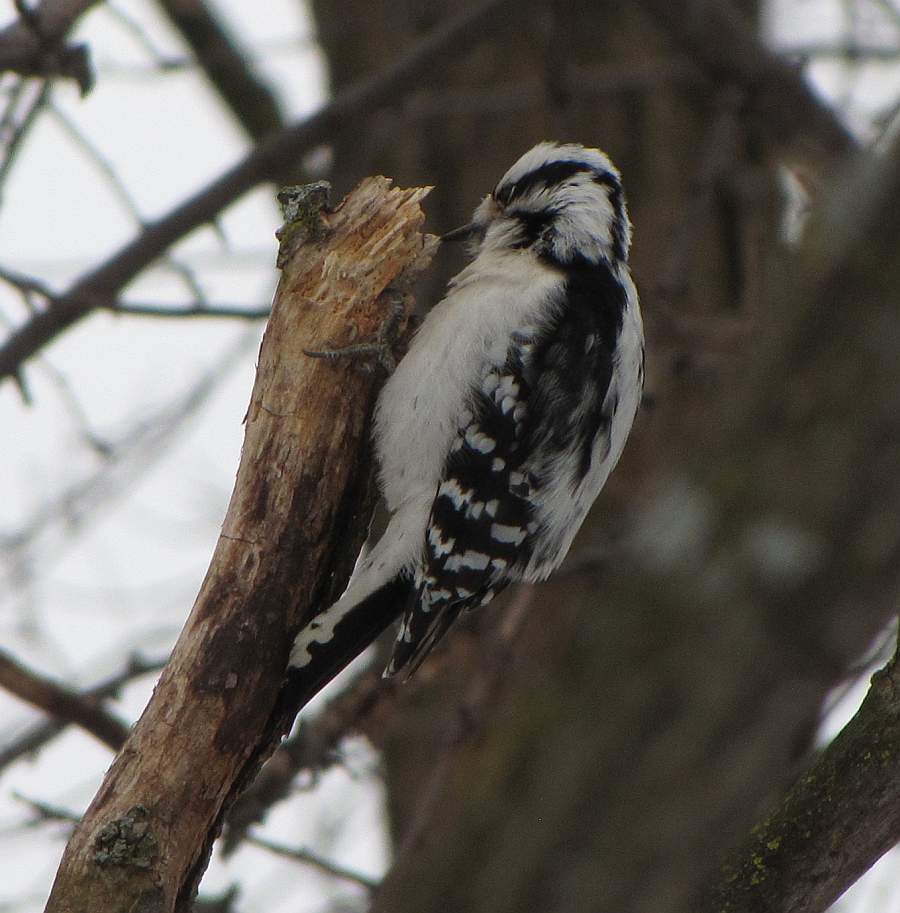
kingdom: Animalia
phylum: Chordata
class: Aves
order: Piciformes
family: Picidae
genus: Dryobates
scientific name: Dryobates pubescens
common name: Downy woodpecker
